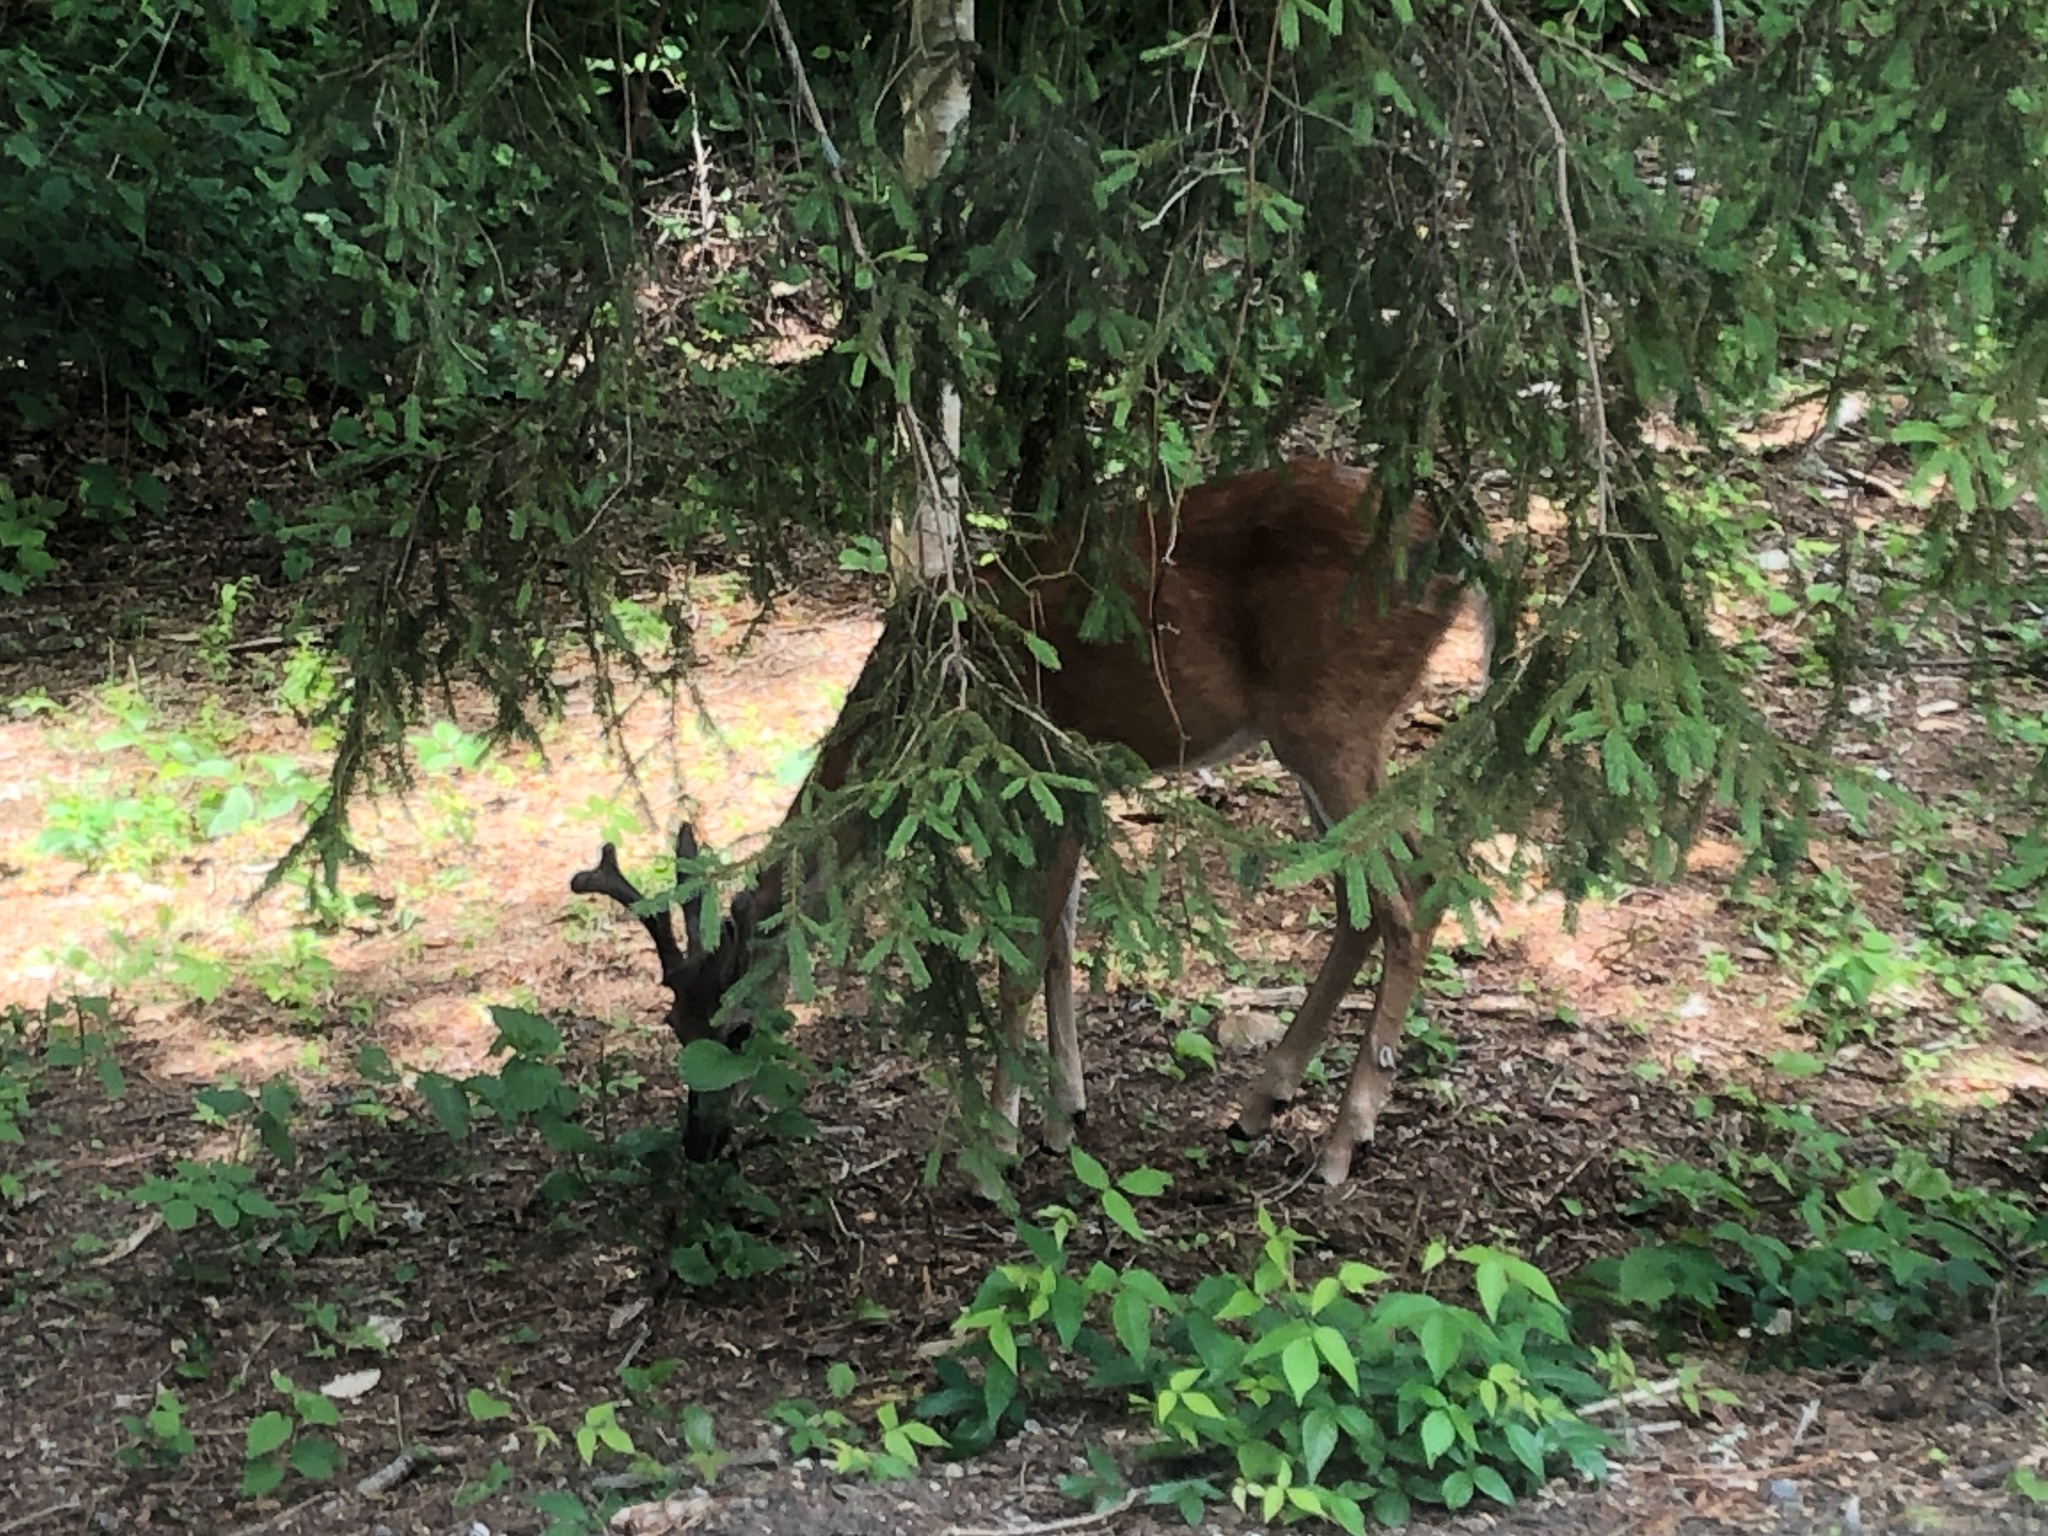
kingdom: Animalia
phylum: Chordata
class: Mammalia
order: Artiodactyla
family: Cervidae
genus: Odocoileus
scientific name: Odocoileus virginianus
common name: White-tailed deer
